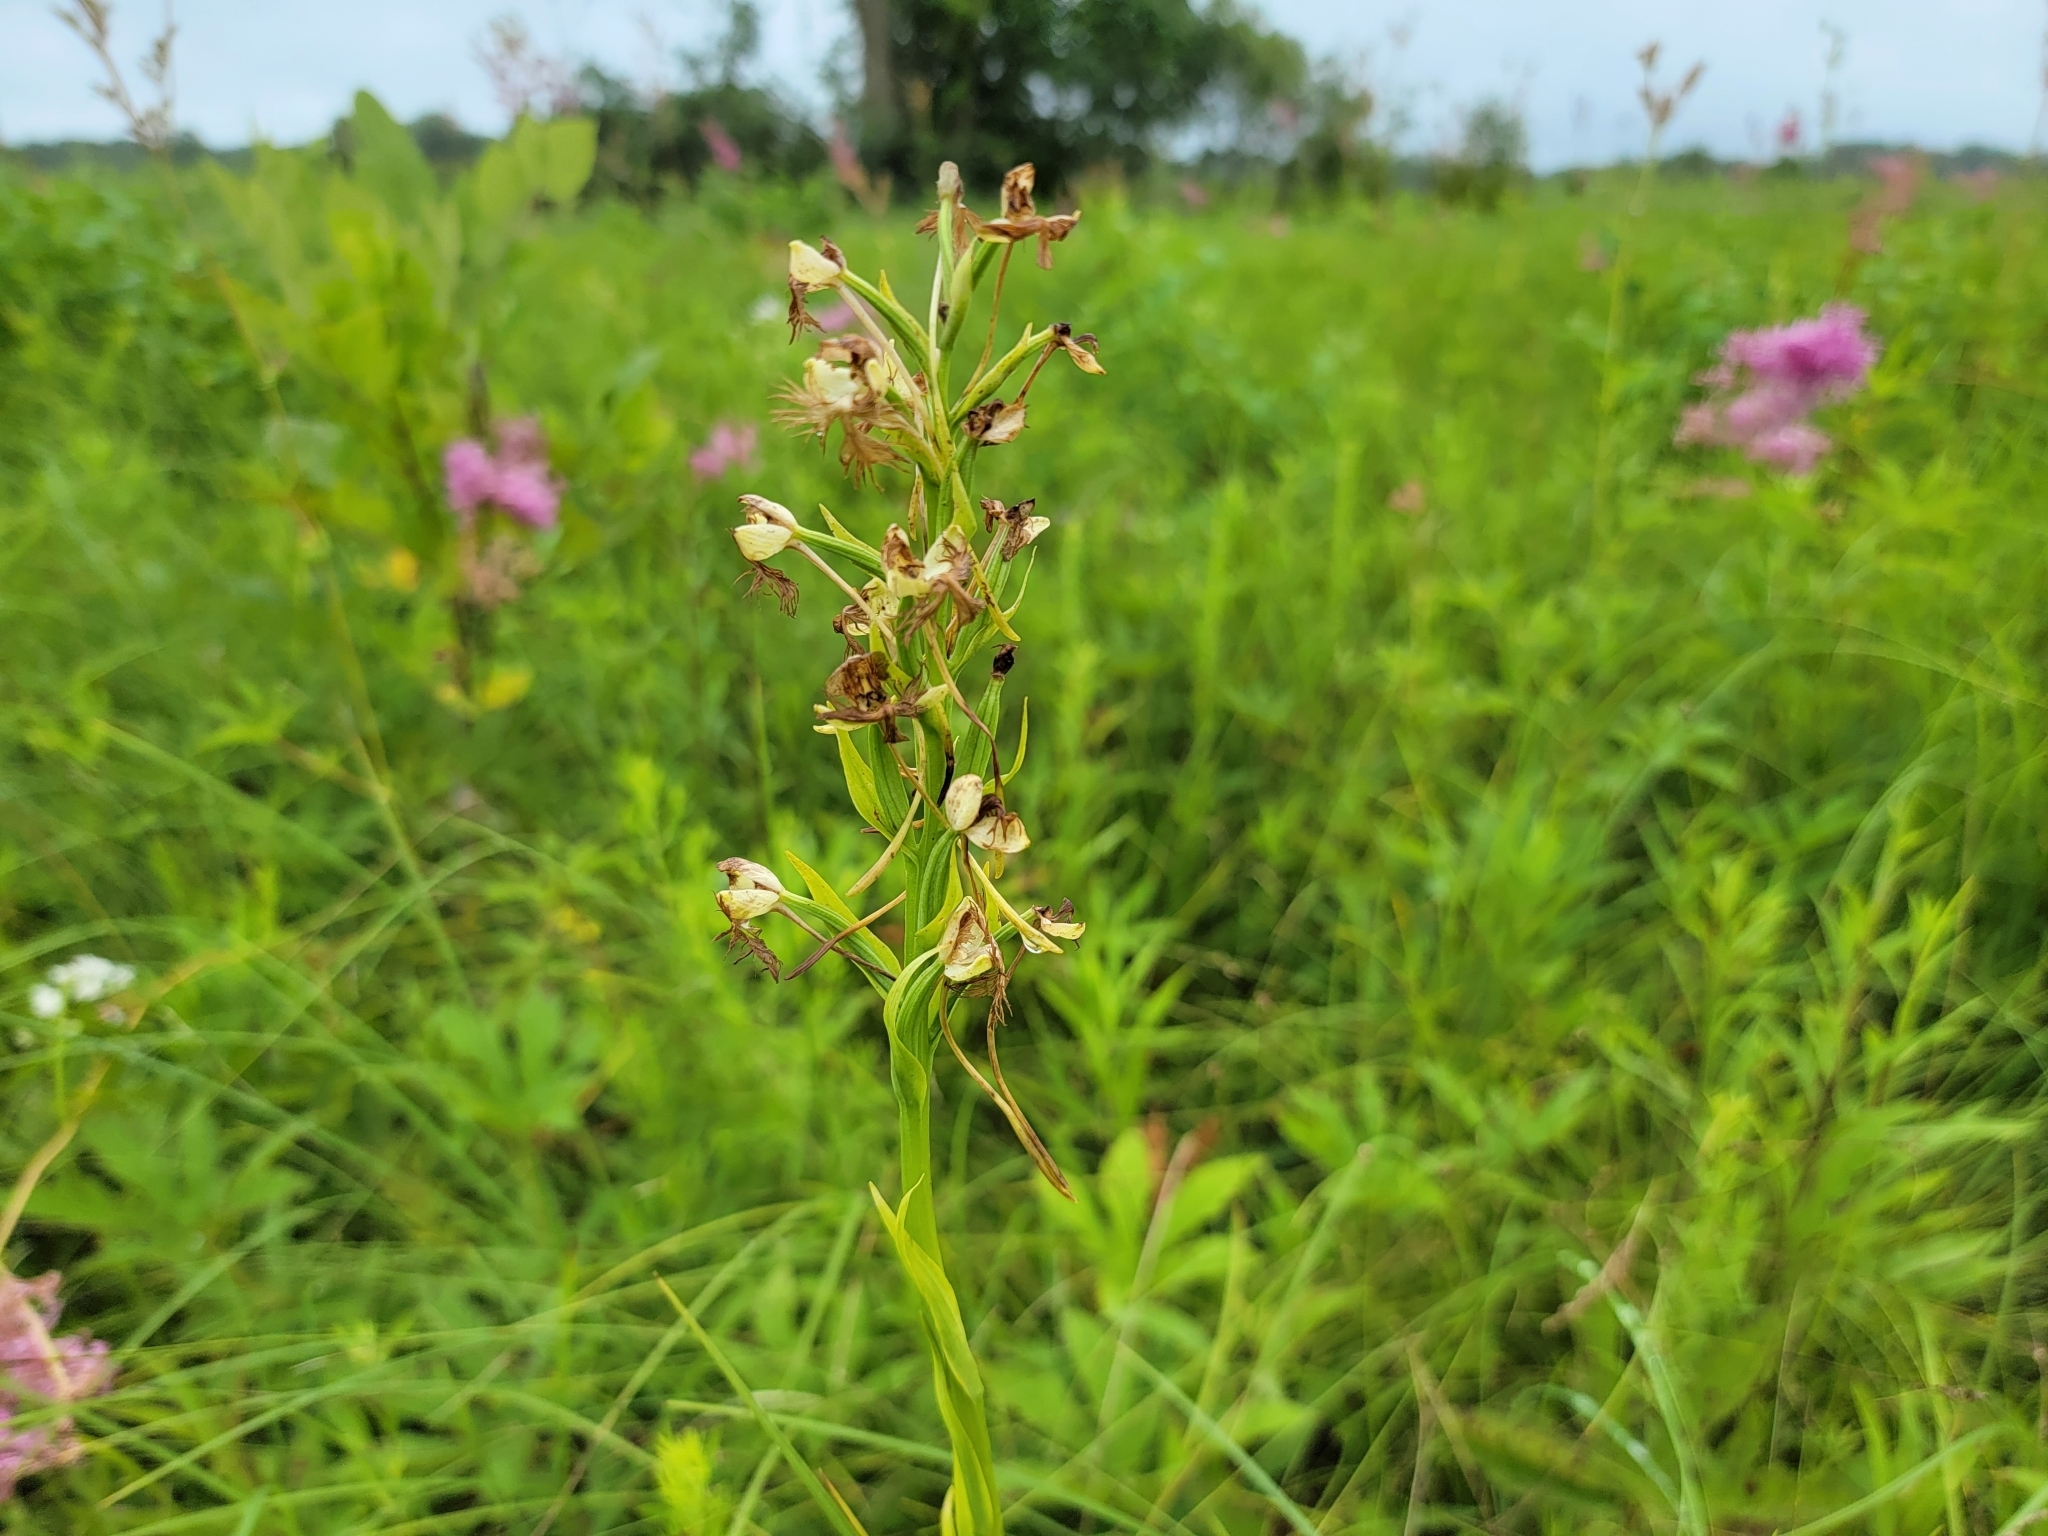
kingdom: Plantae
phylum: Tracheophyta
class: Liliopsida
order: Asparagales
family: Orchidaceae
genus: Platanthera
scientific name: Platanthera leucophaea
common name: Eastern prairie white-fringed orchid
